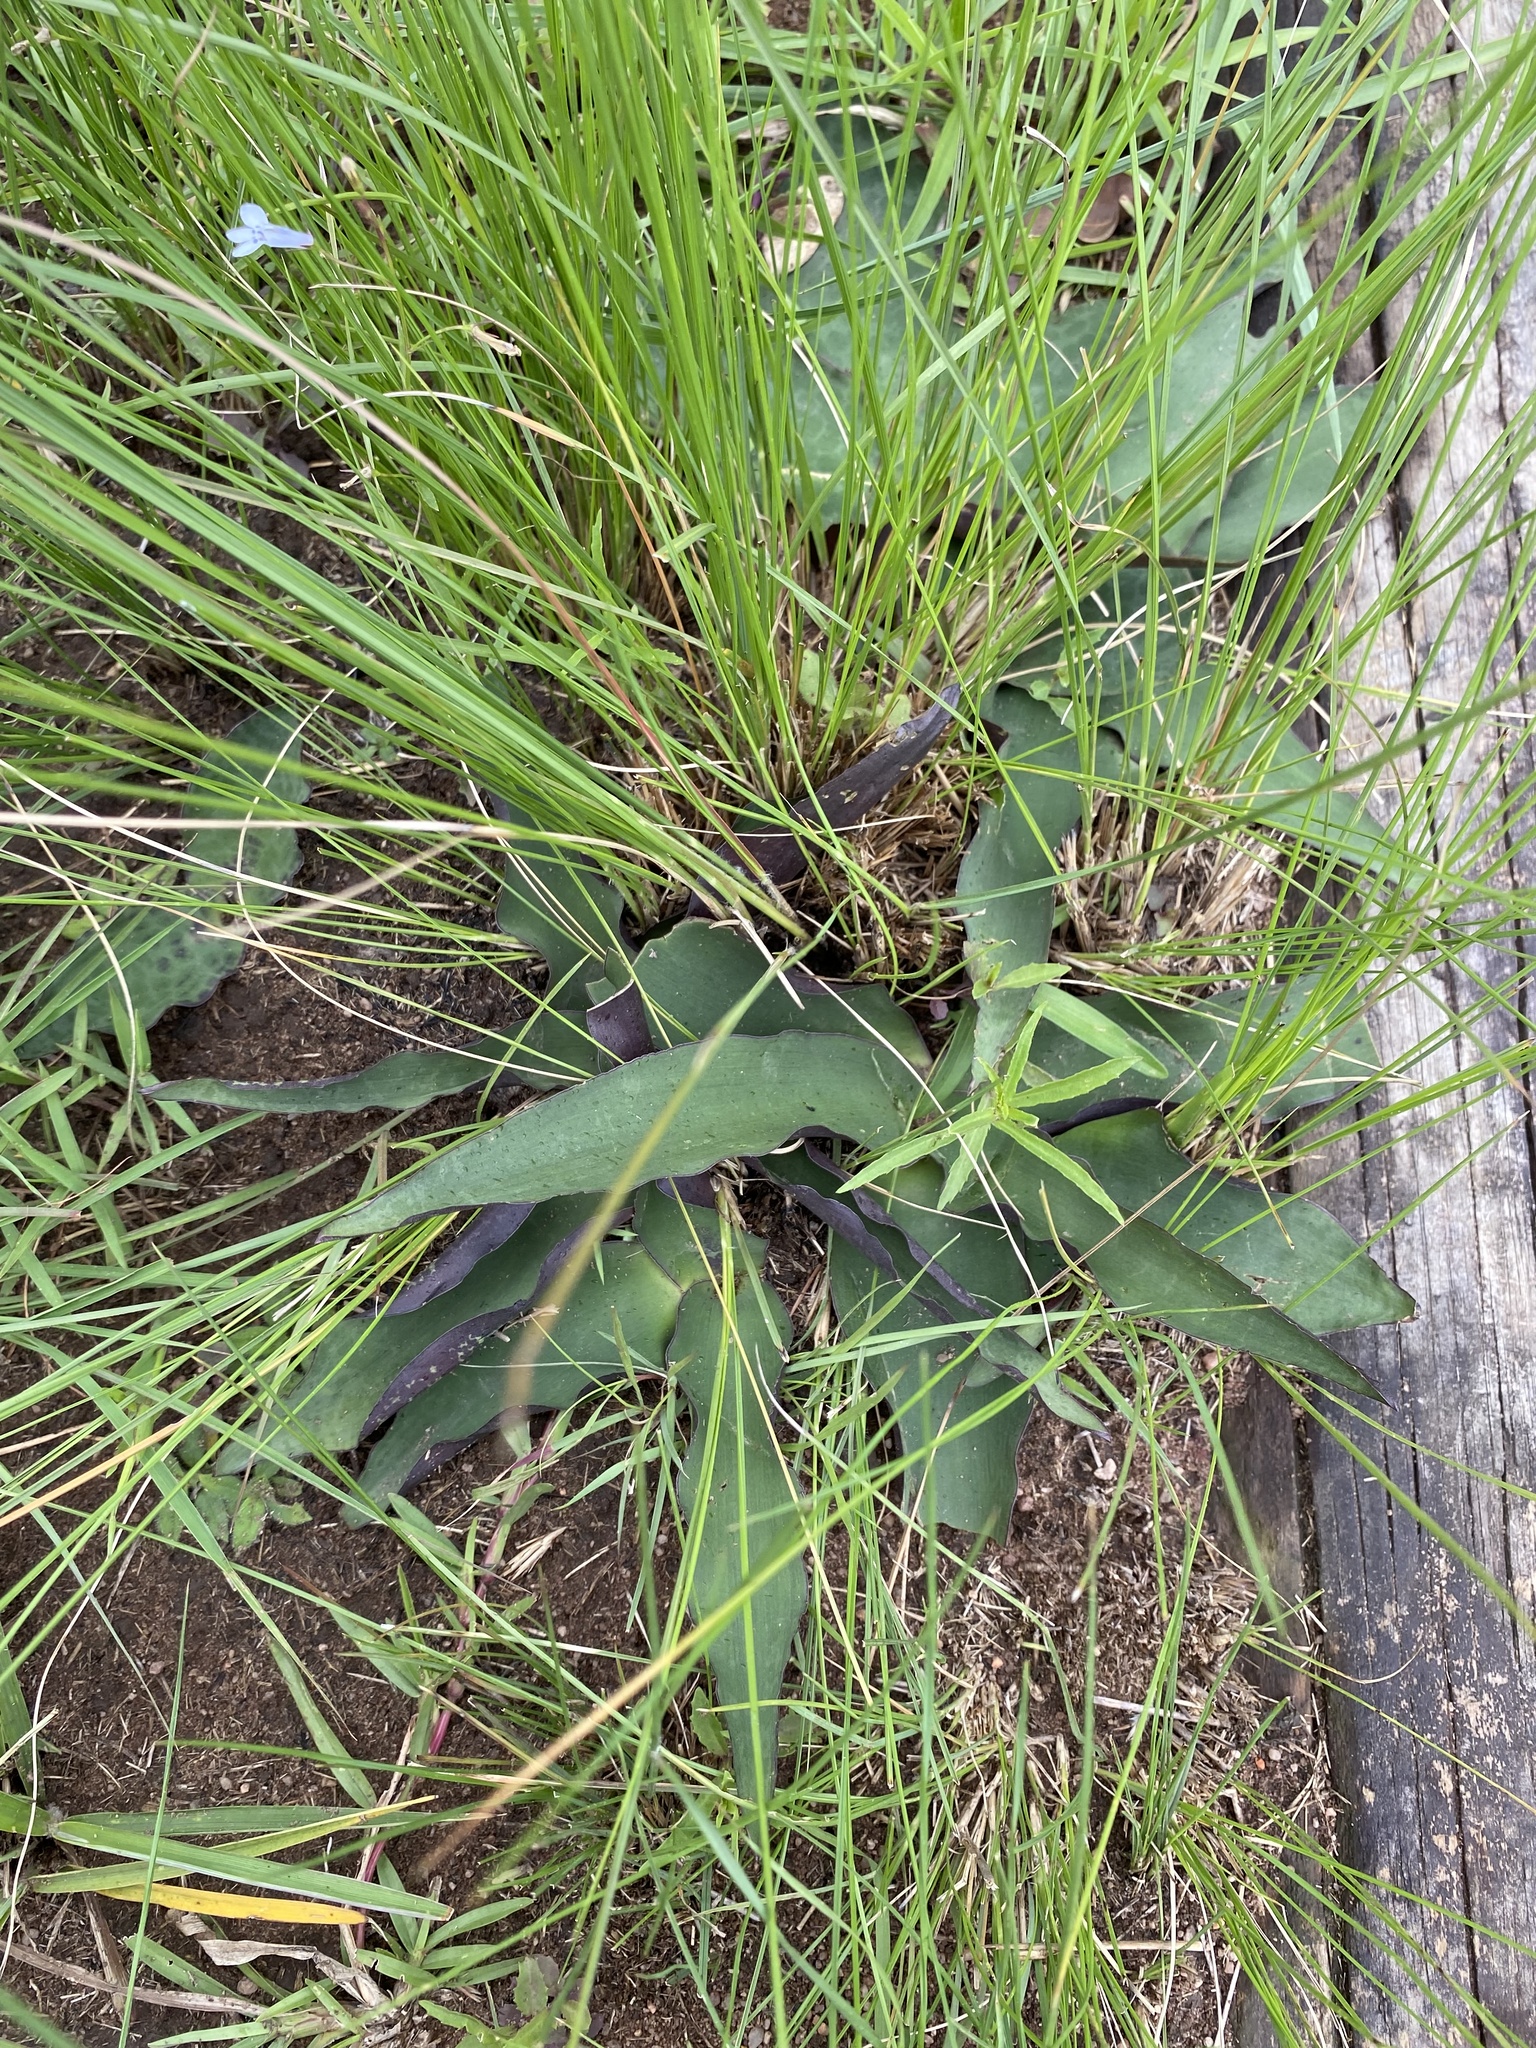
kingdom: Plantae
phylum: Tracheophyta
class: Liliopsida
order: Asparagales
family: Asparagaceae
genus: Ledebouria
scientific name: Ledebouria ovatifolia
